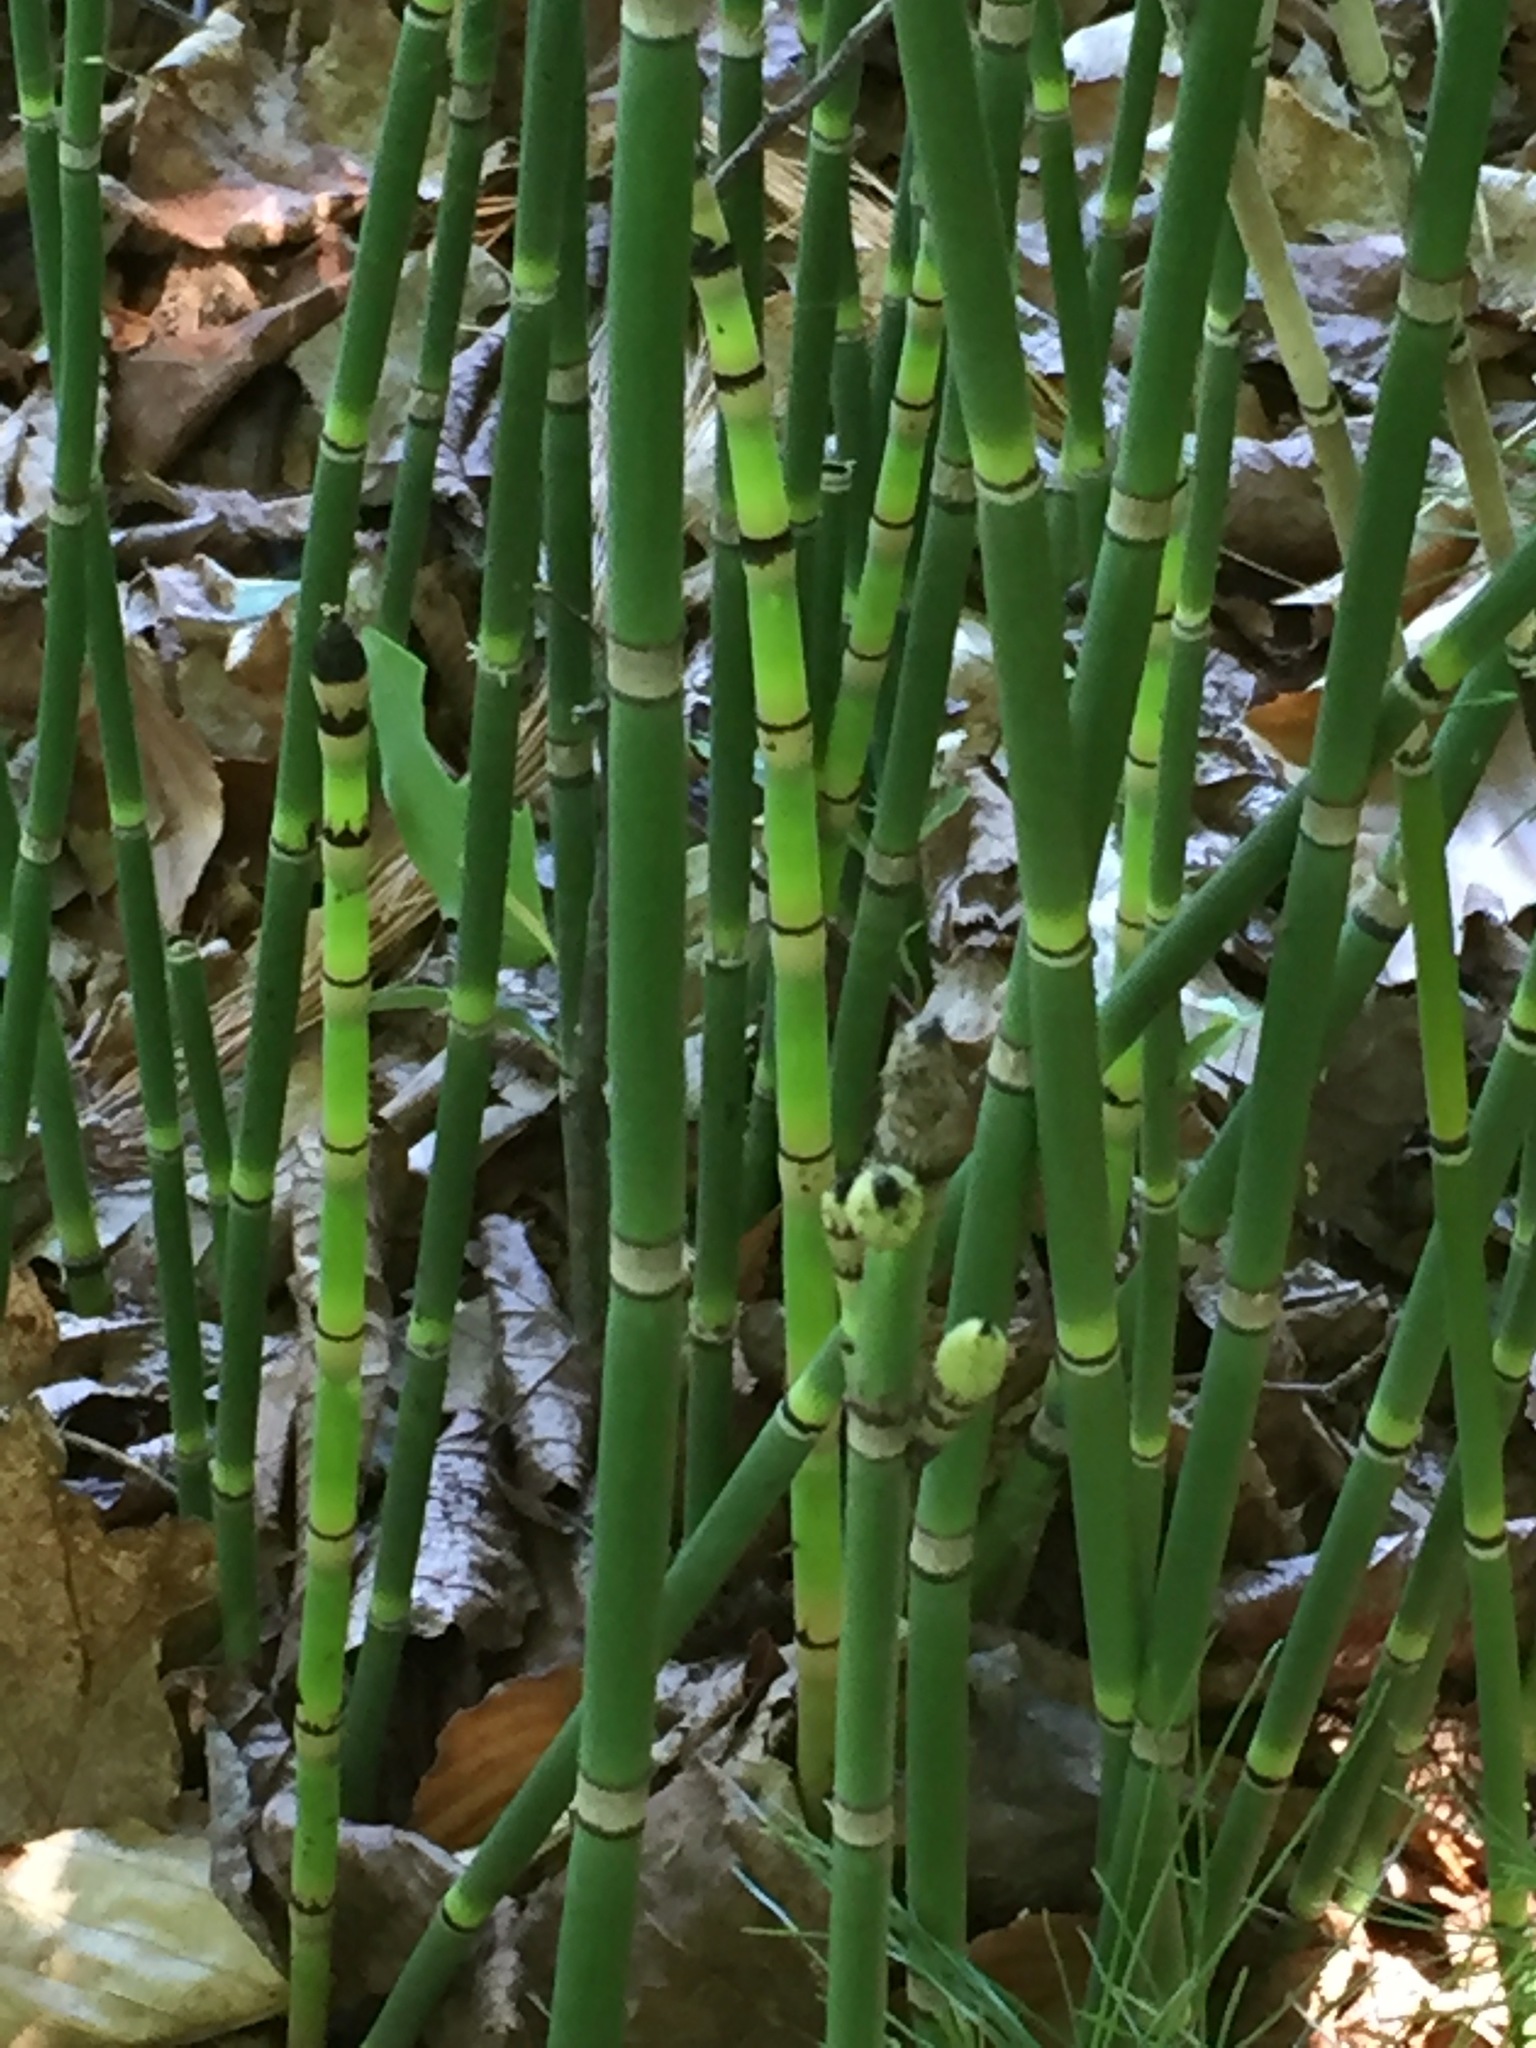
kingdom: Plantae
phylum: Tracheophyta
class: Polypodiopsida
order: Equisetales
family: Equisetaceae
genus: Equisetum
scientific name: Equisetum hyemale
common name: Rough horsetail
